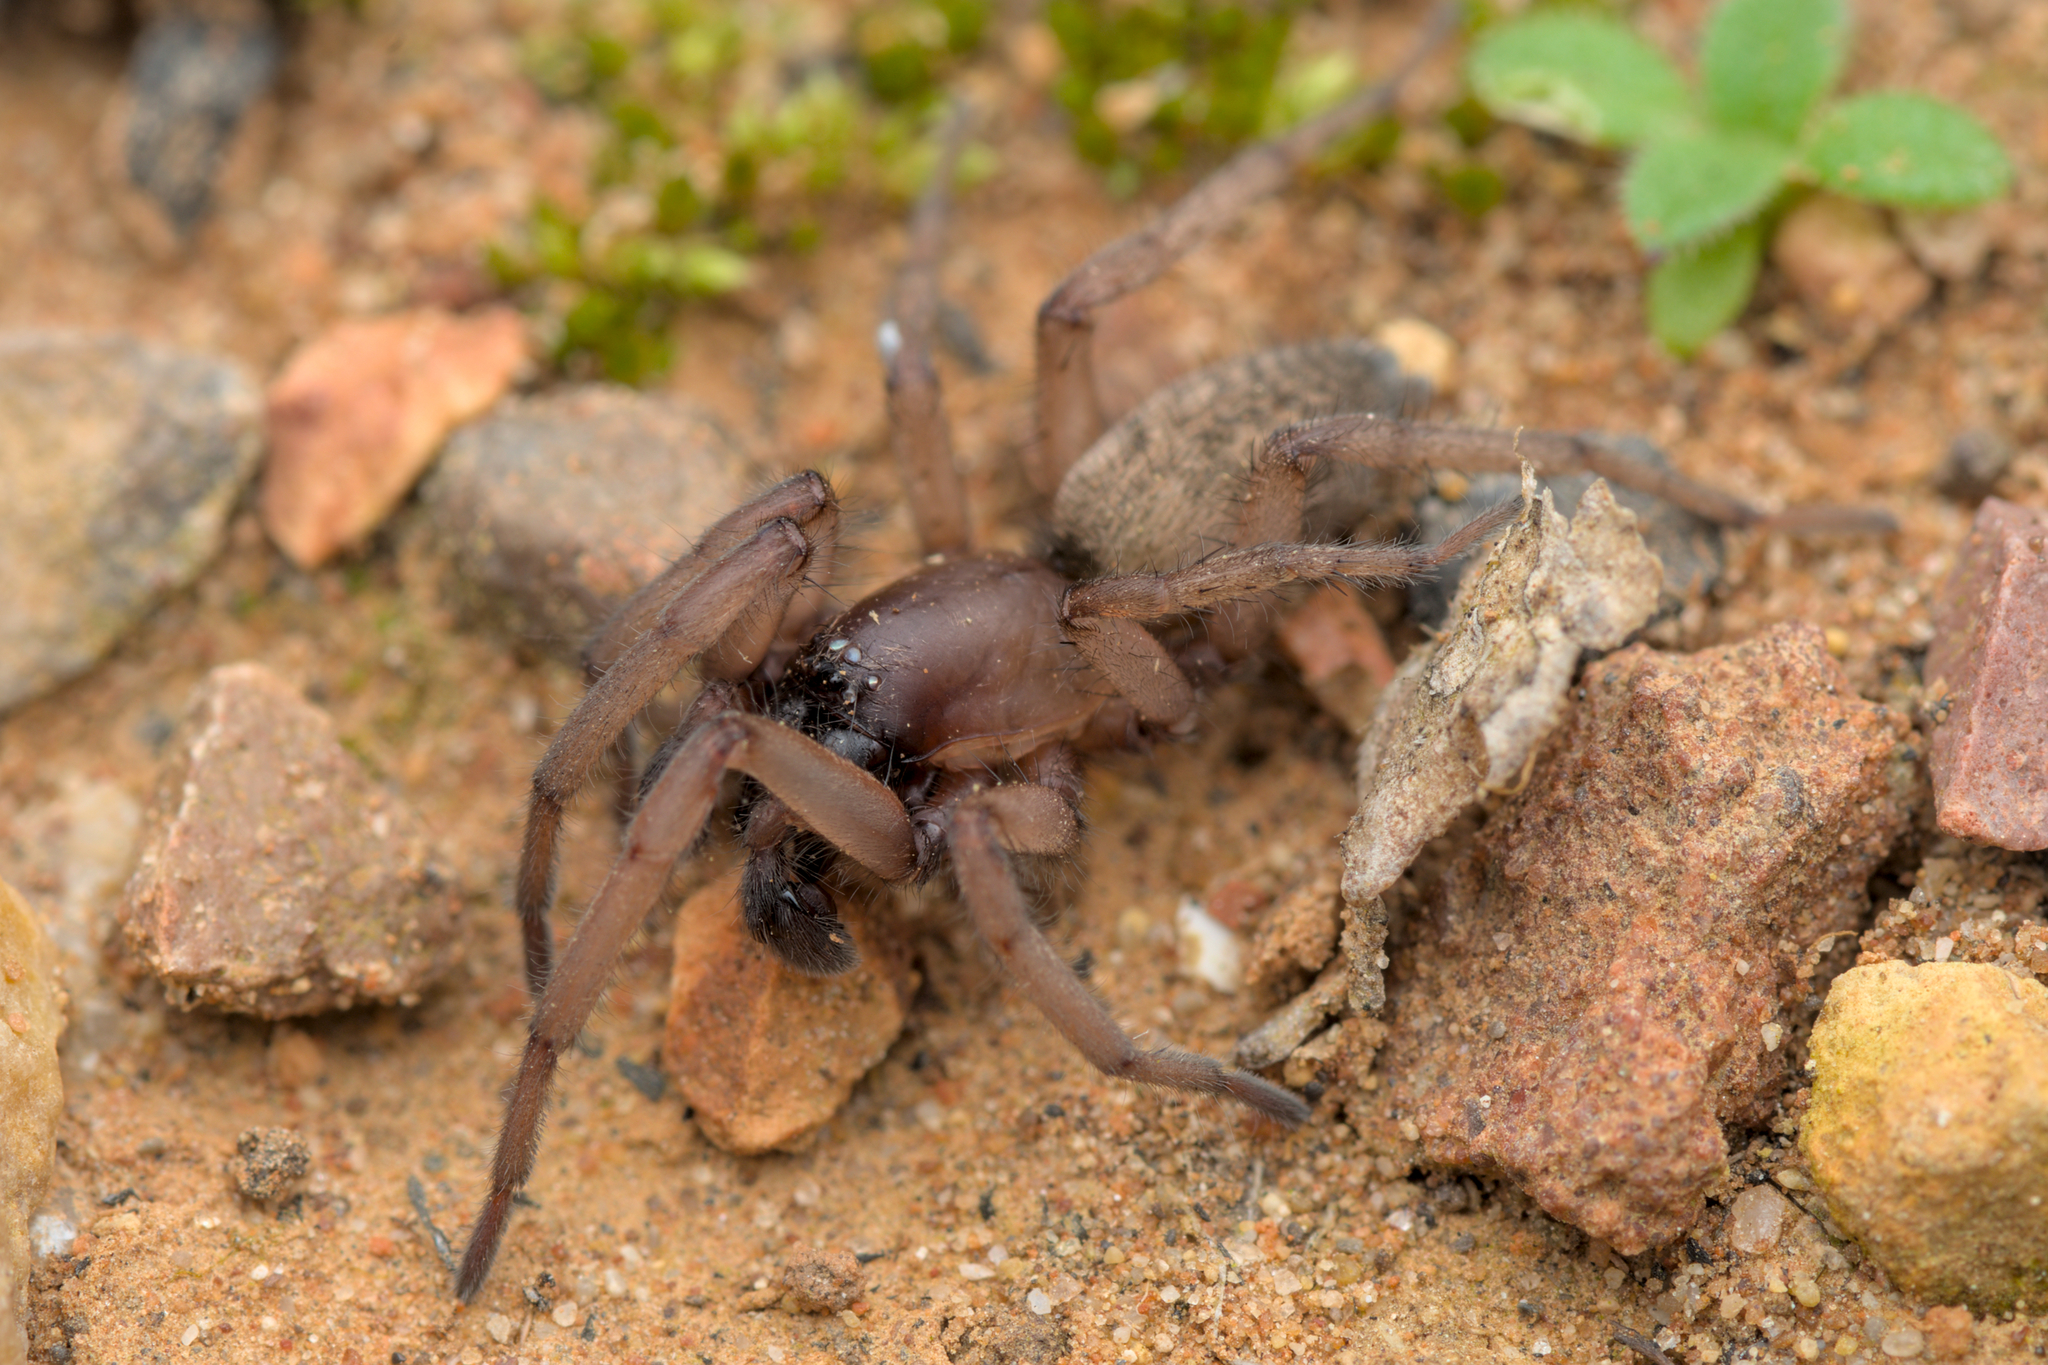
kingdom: Animalia
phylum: Arthropoda
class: Arachnida
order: Araneae
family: Gnaphosidae
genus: Haplodrassus
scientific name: Haplodrassus rufipes
